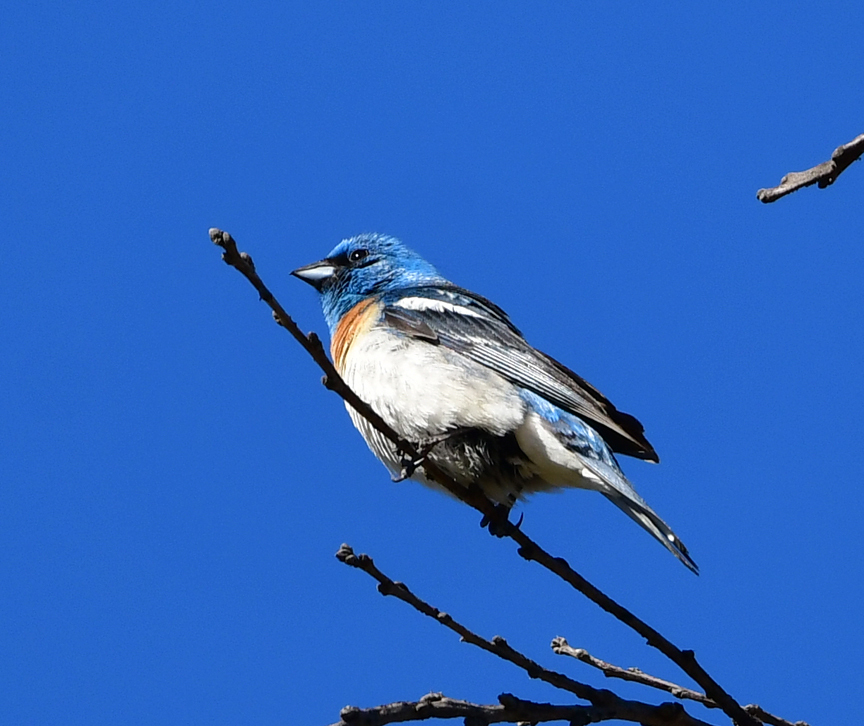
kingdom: Animalia
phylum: Chordata
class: Aves
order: Passeriformes
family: Cardinalidae
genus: Passerina
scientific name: Passerina amoena
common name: Lazuli bunting
